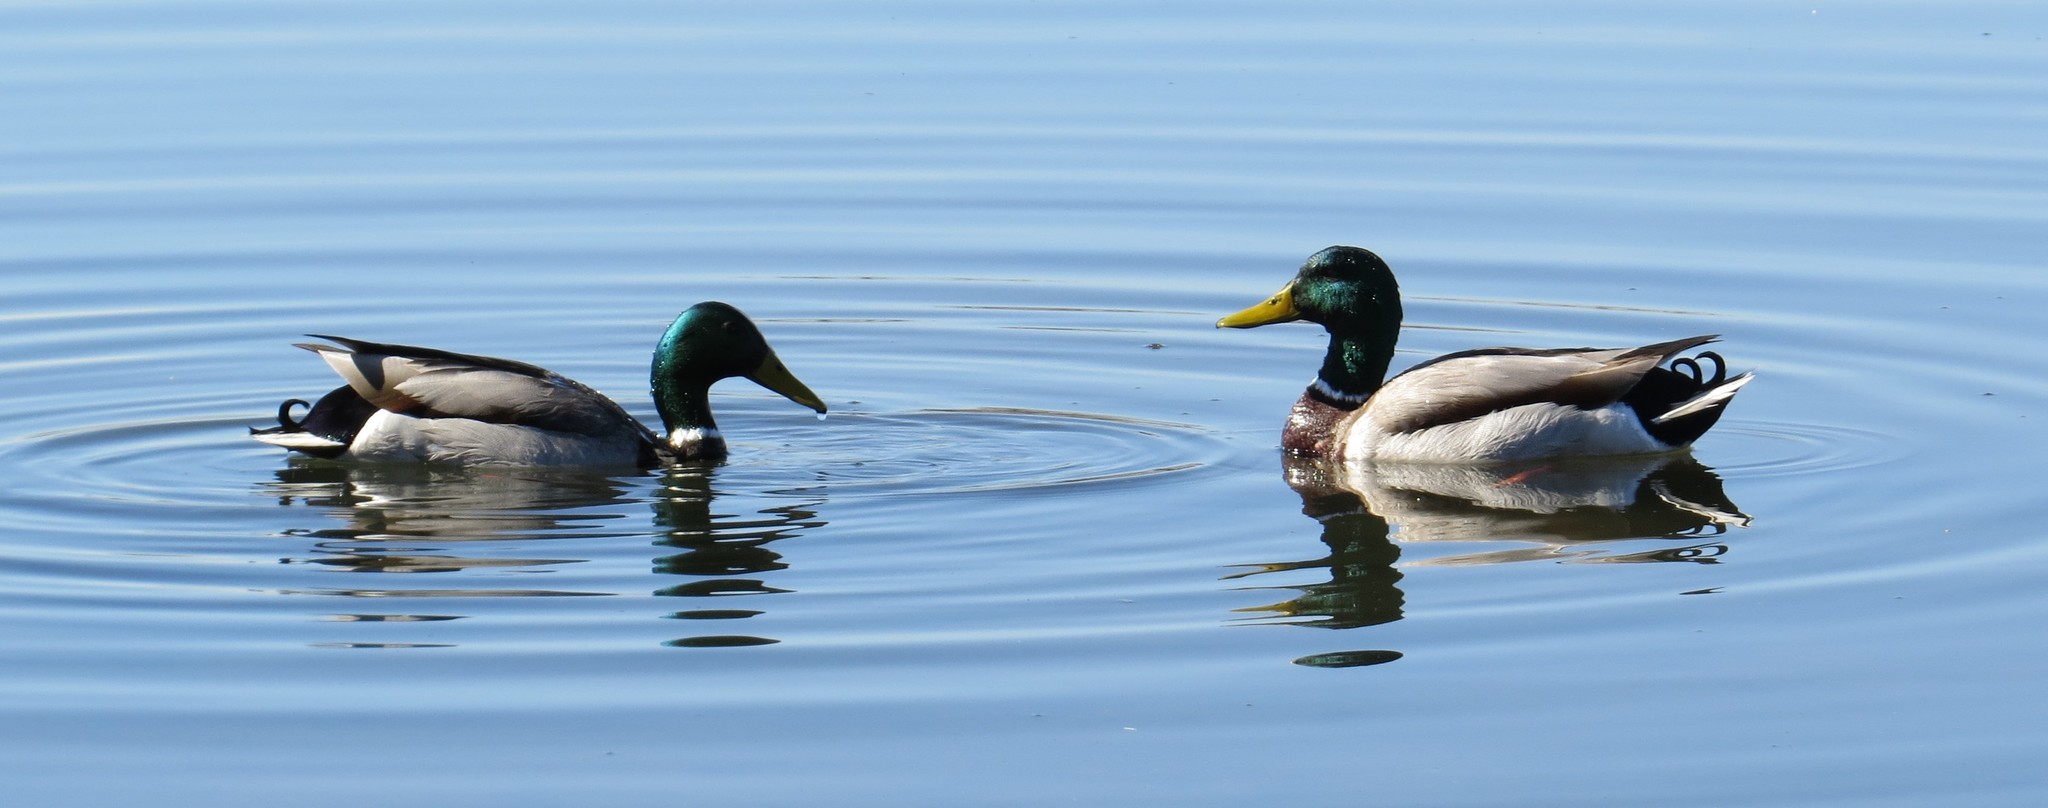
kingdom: Animalia
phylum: Chordata
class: Aves
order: Anseriformes
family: Anatidae
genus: Anas
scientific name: Anas platyrhynchos
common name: Mallard
